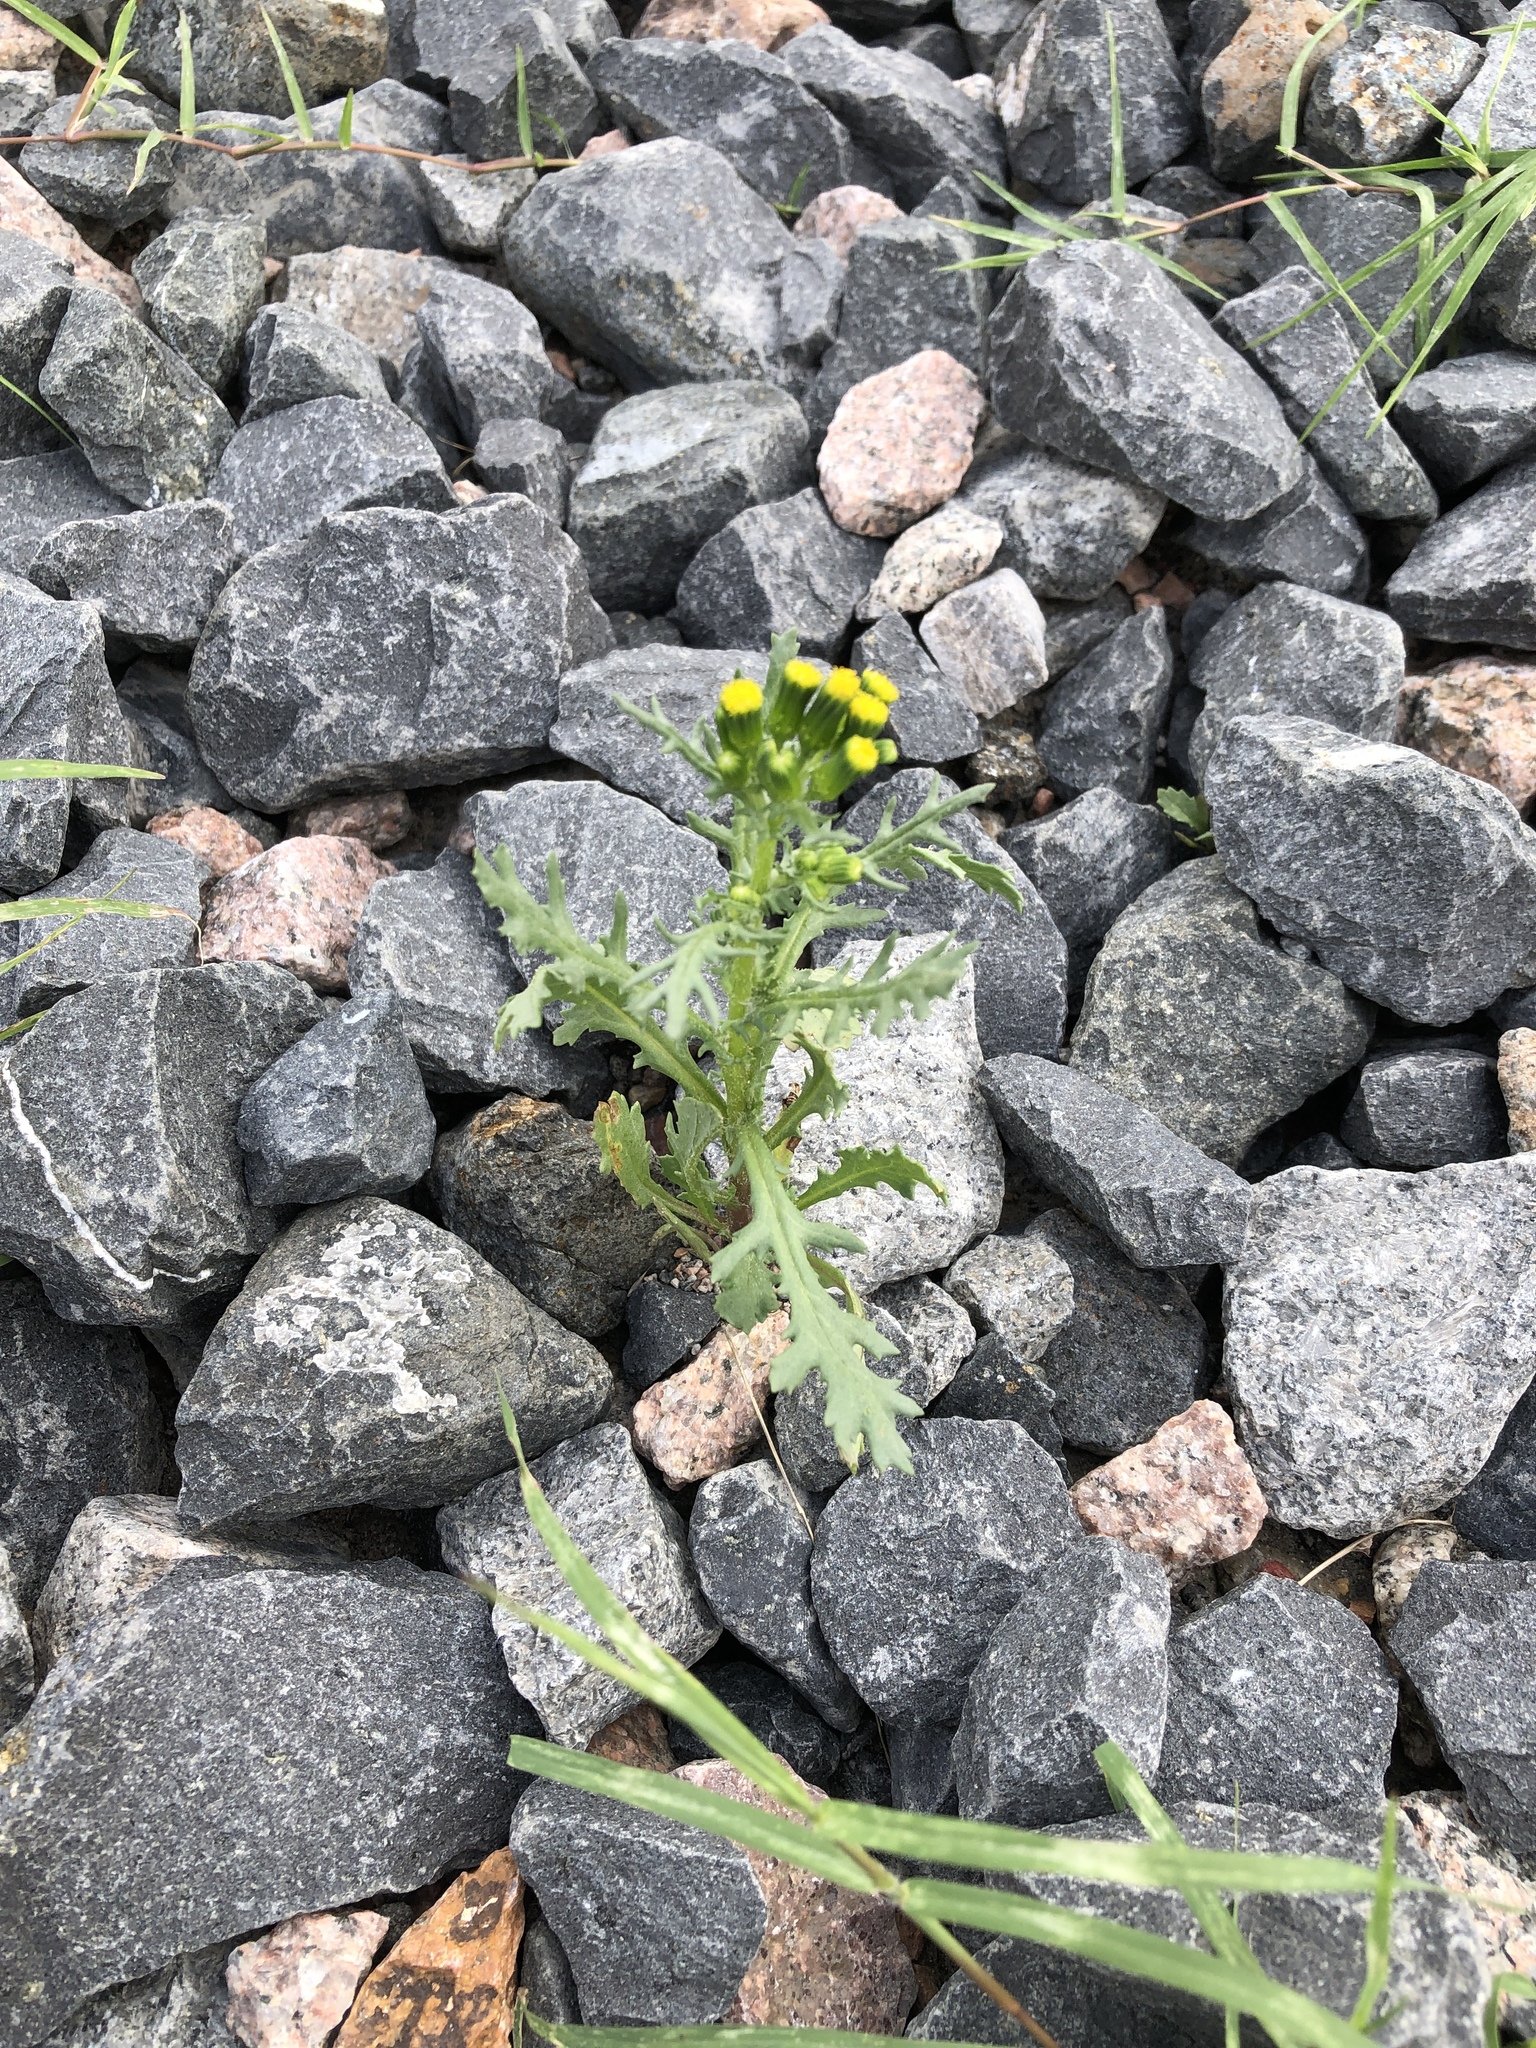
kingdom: Plantae
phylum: Tracheophyta
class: Magnoliopsida
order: Asterales
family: Asteraceae
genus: Senecio
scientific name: Senecio vulgaris
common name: Old-man-in-the-spring
